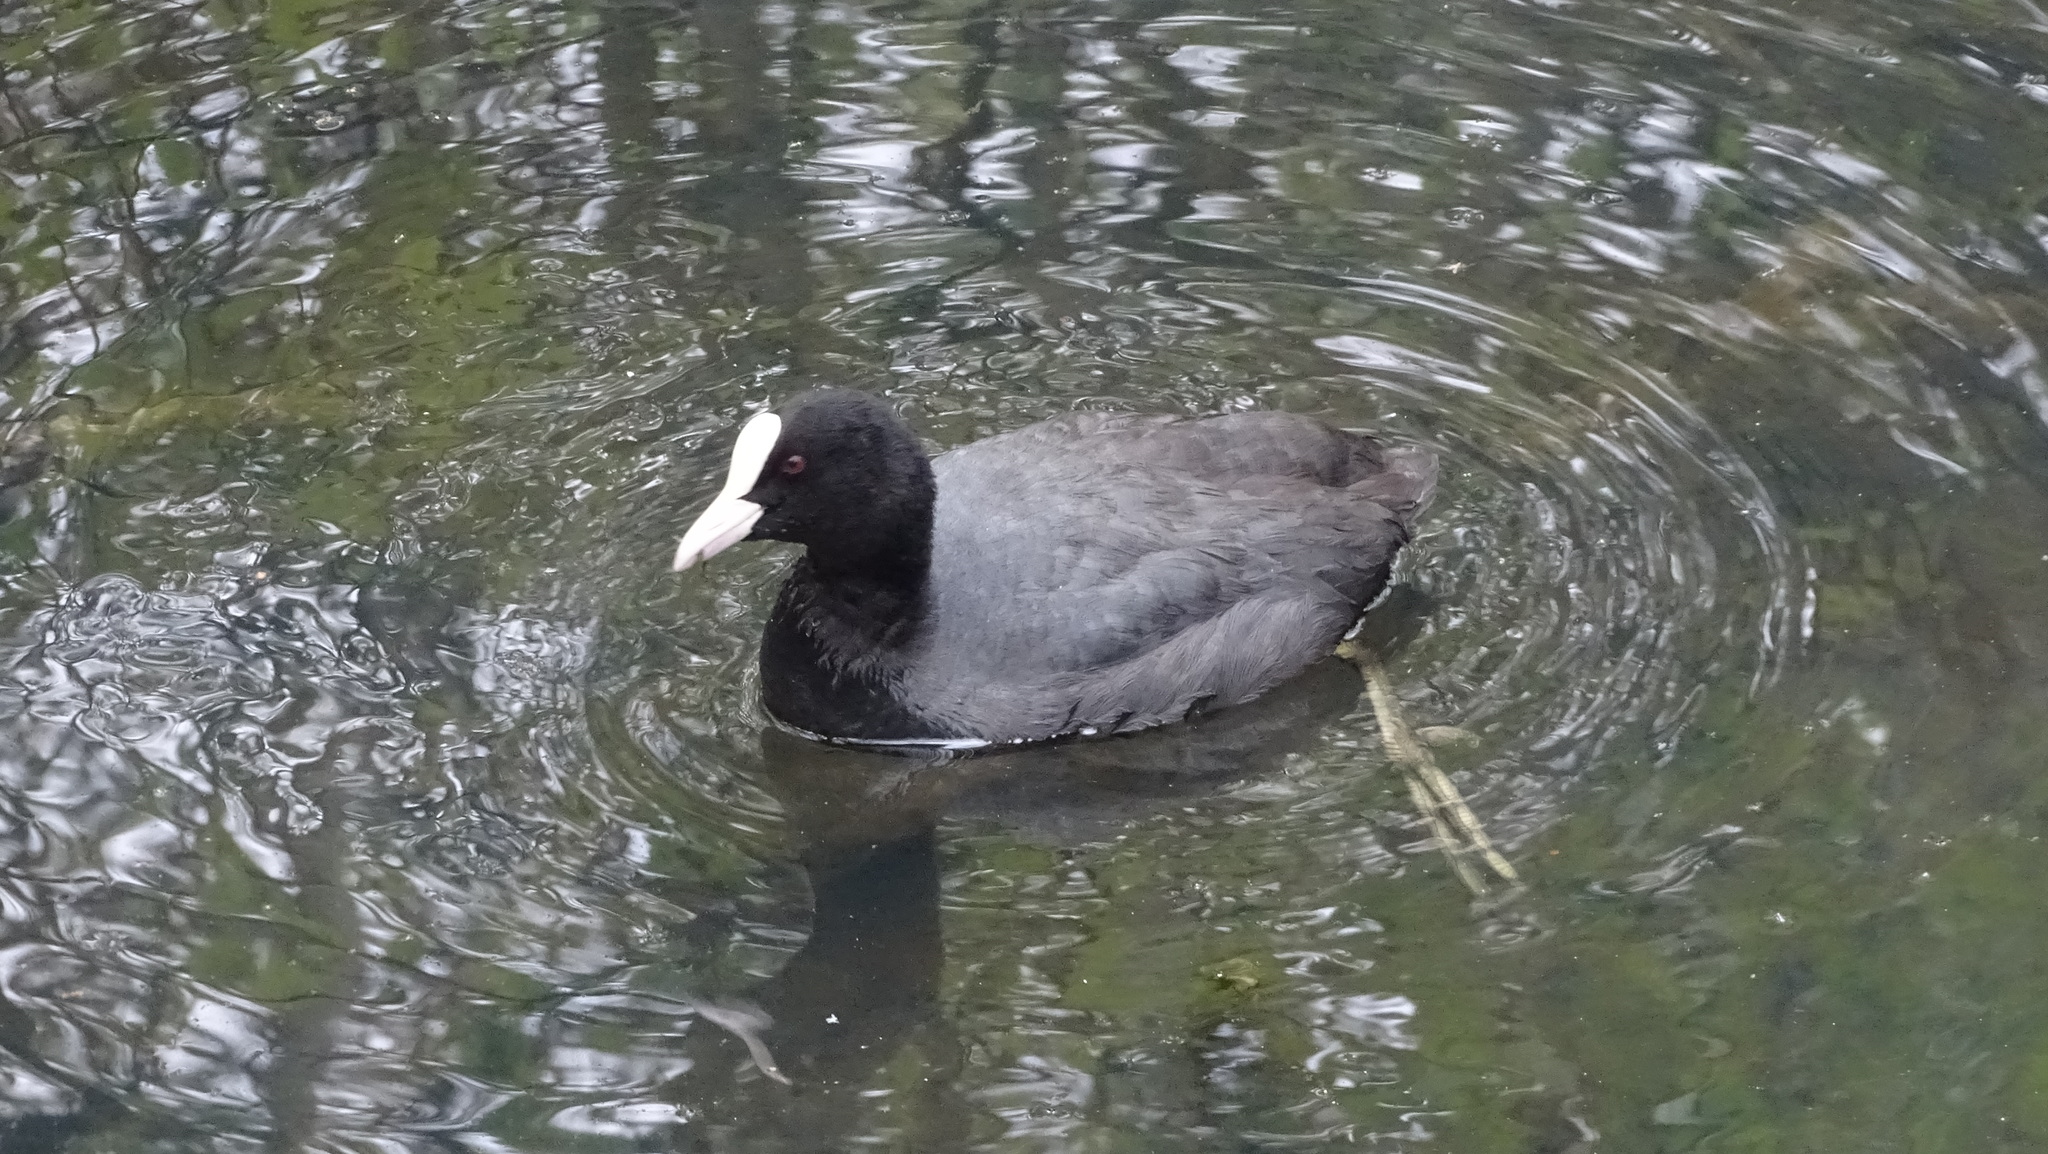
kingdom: Animalia
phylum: Chordata
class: Aves
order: Gruiformes
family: Rallidae
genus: Fulica
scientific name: Fulica atra
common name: Eurasian coot
